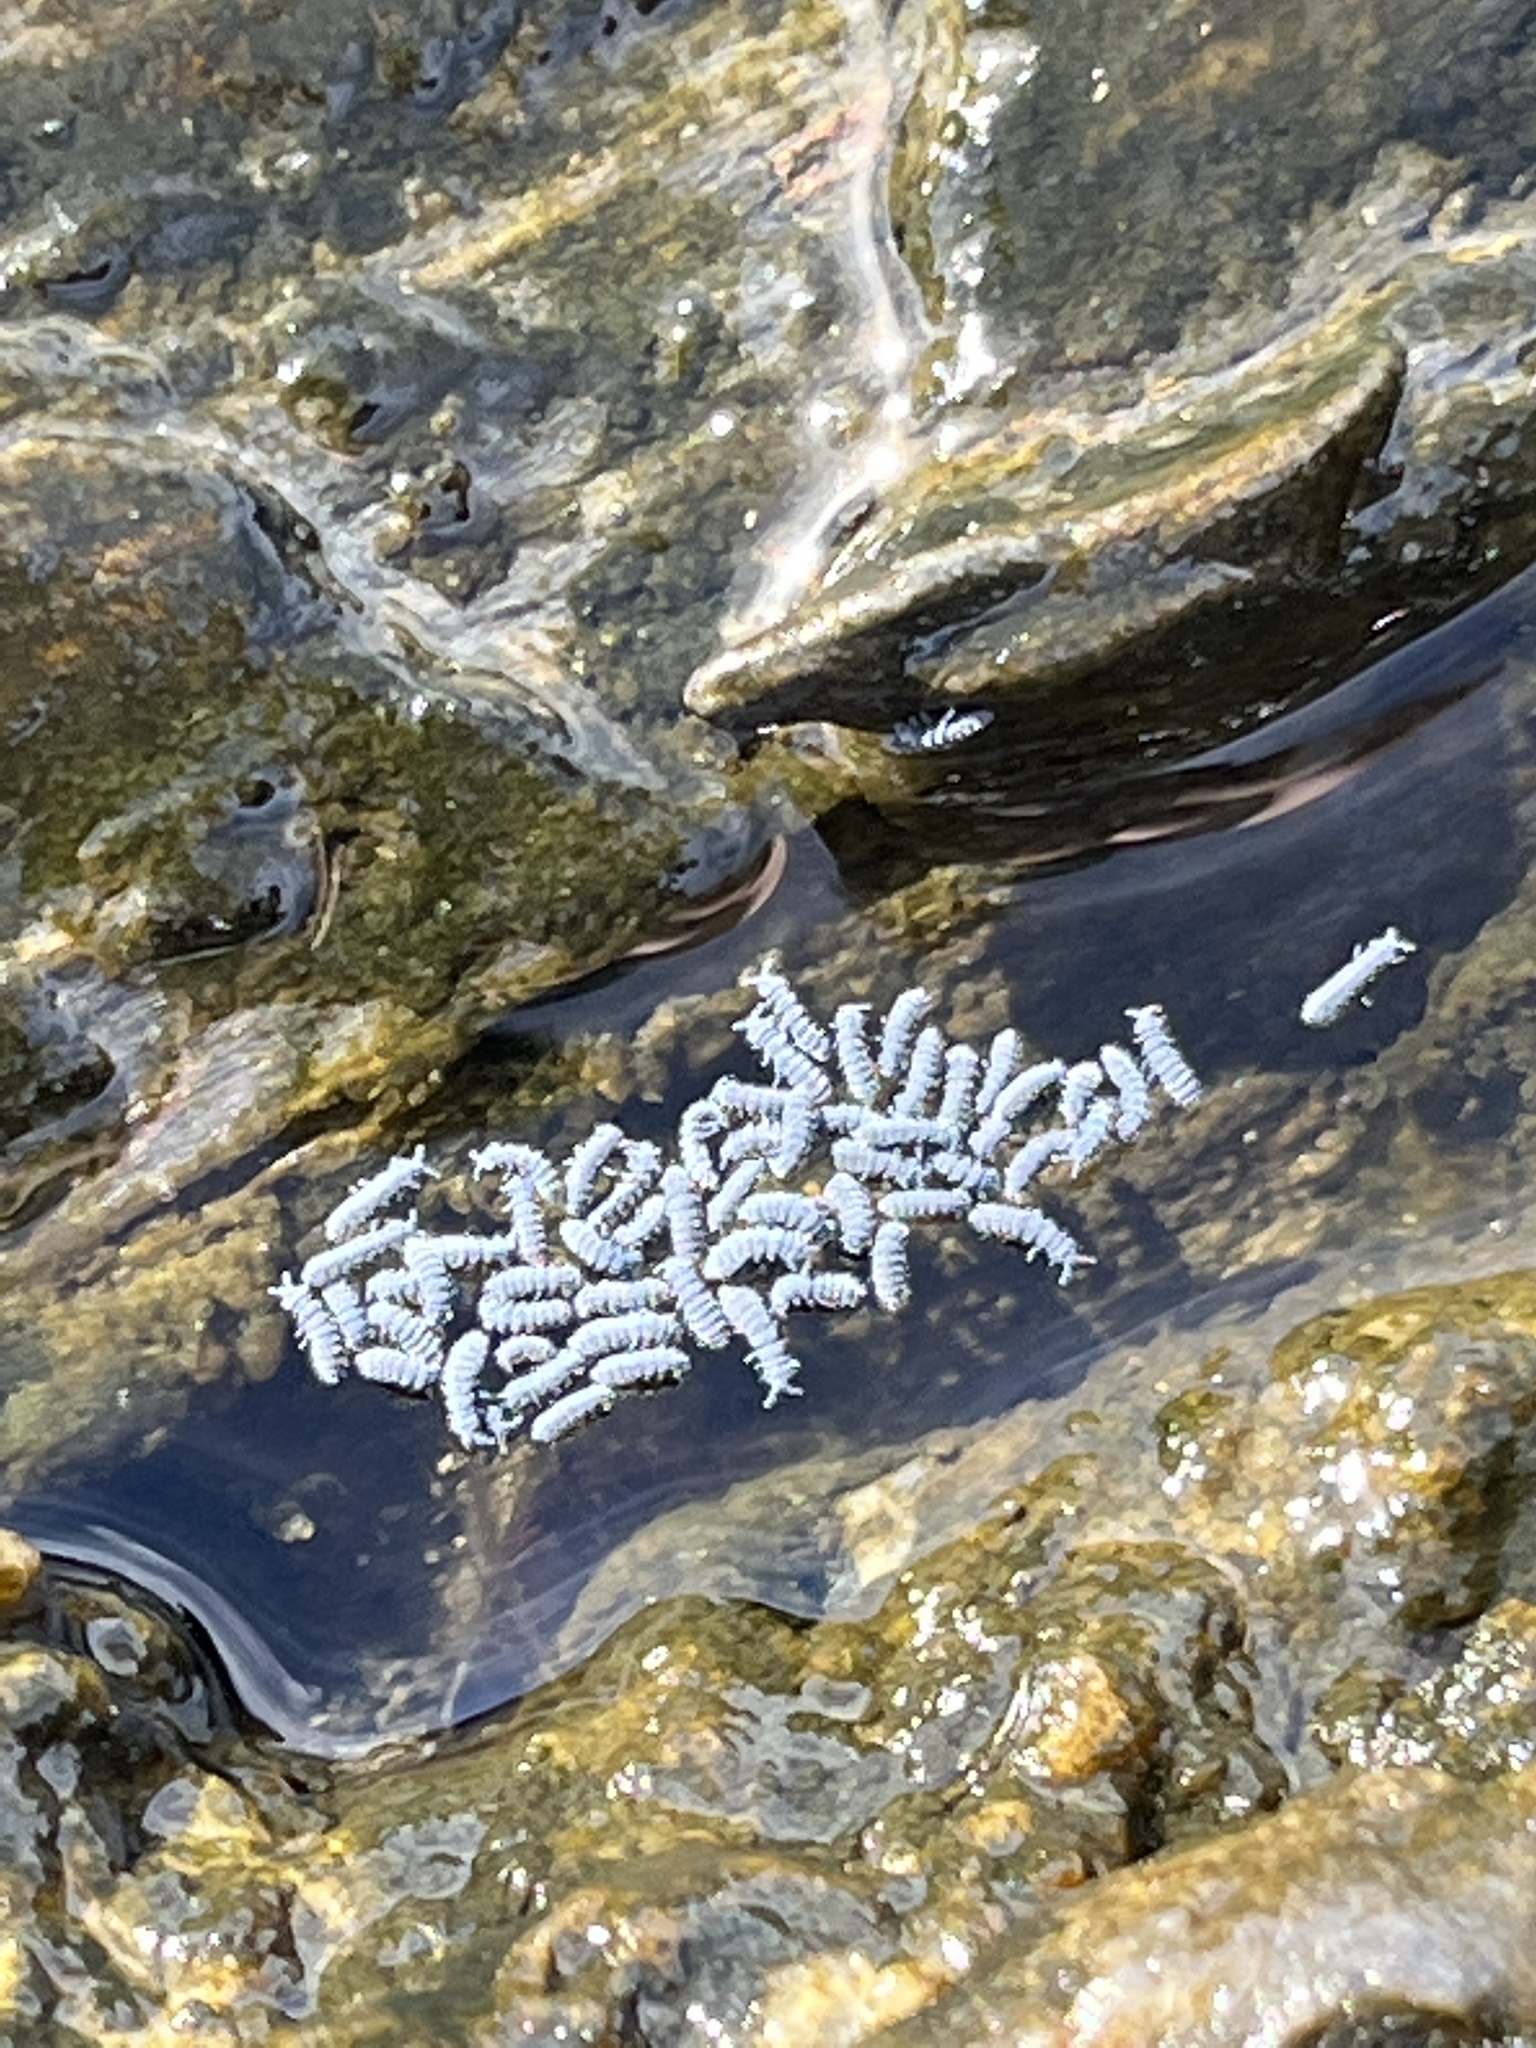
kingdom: Animalia
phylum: Arthropoda
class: Collembola
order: Poduromorpha
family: Neanuridae
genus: Anurida
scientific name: Anurida maritima
